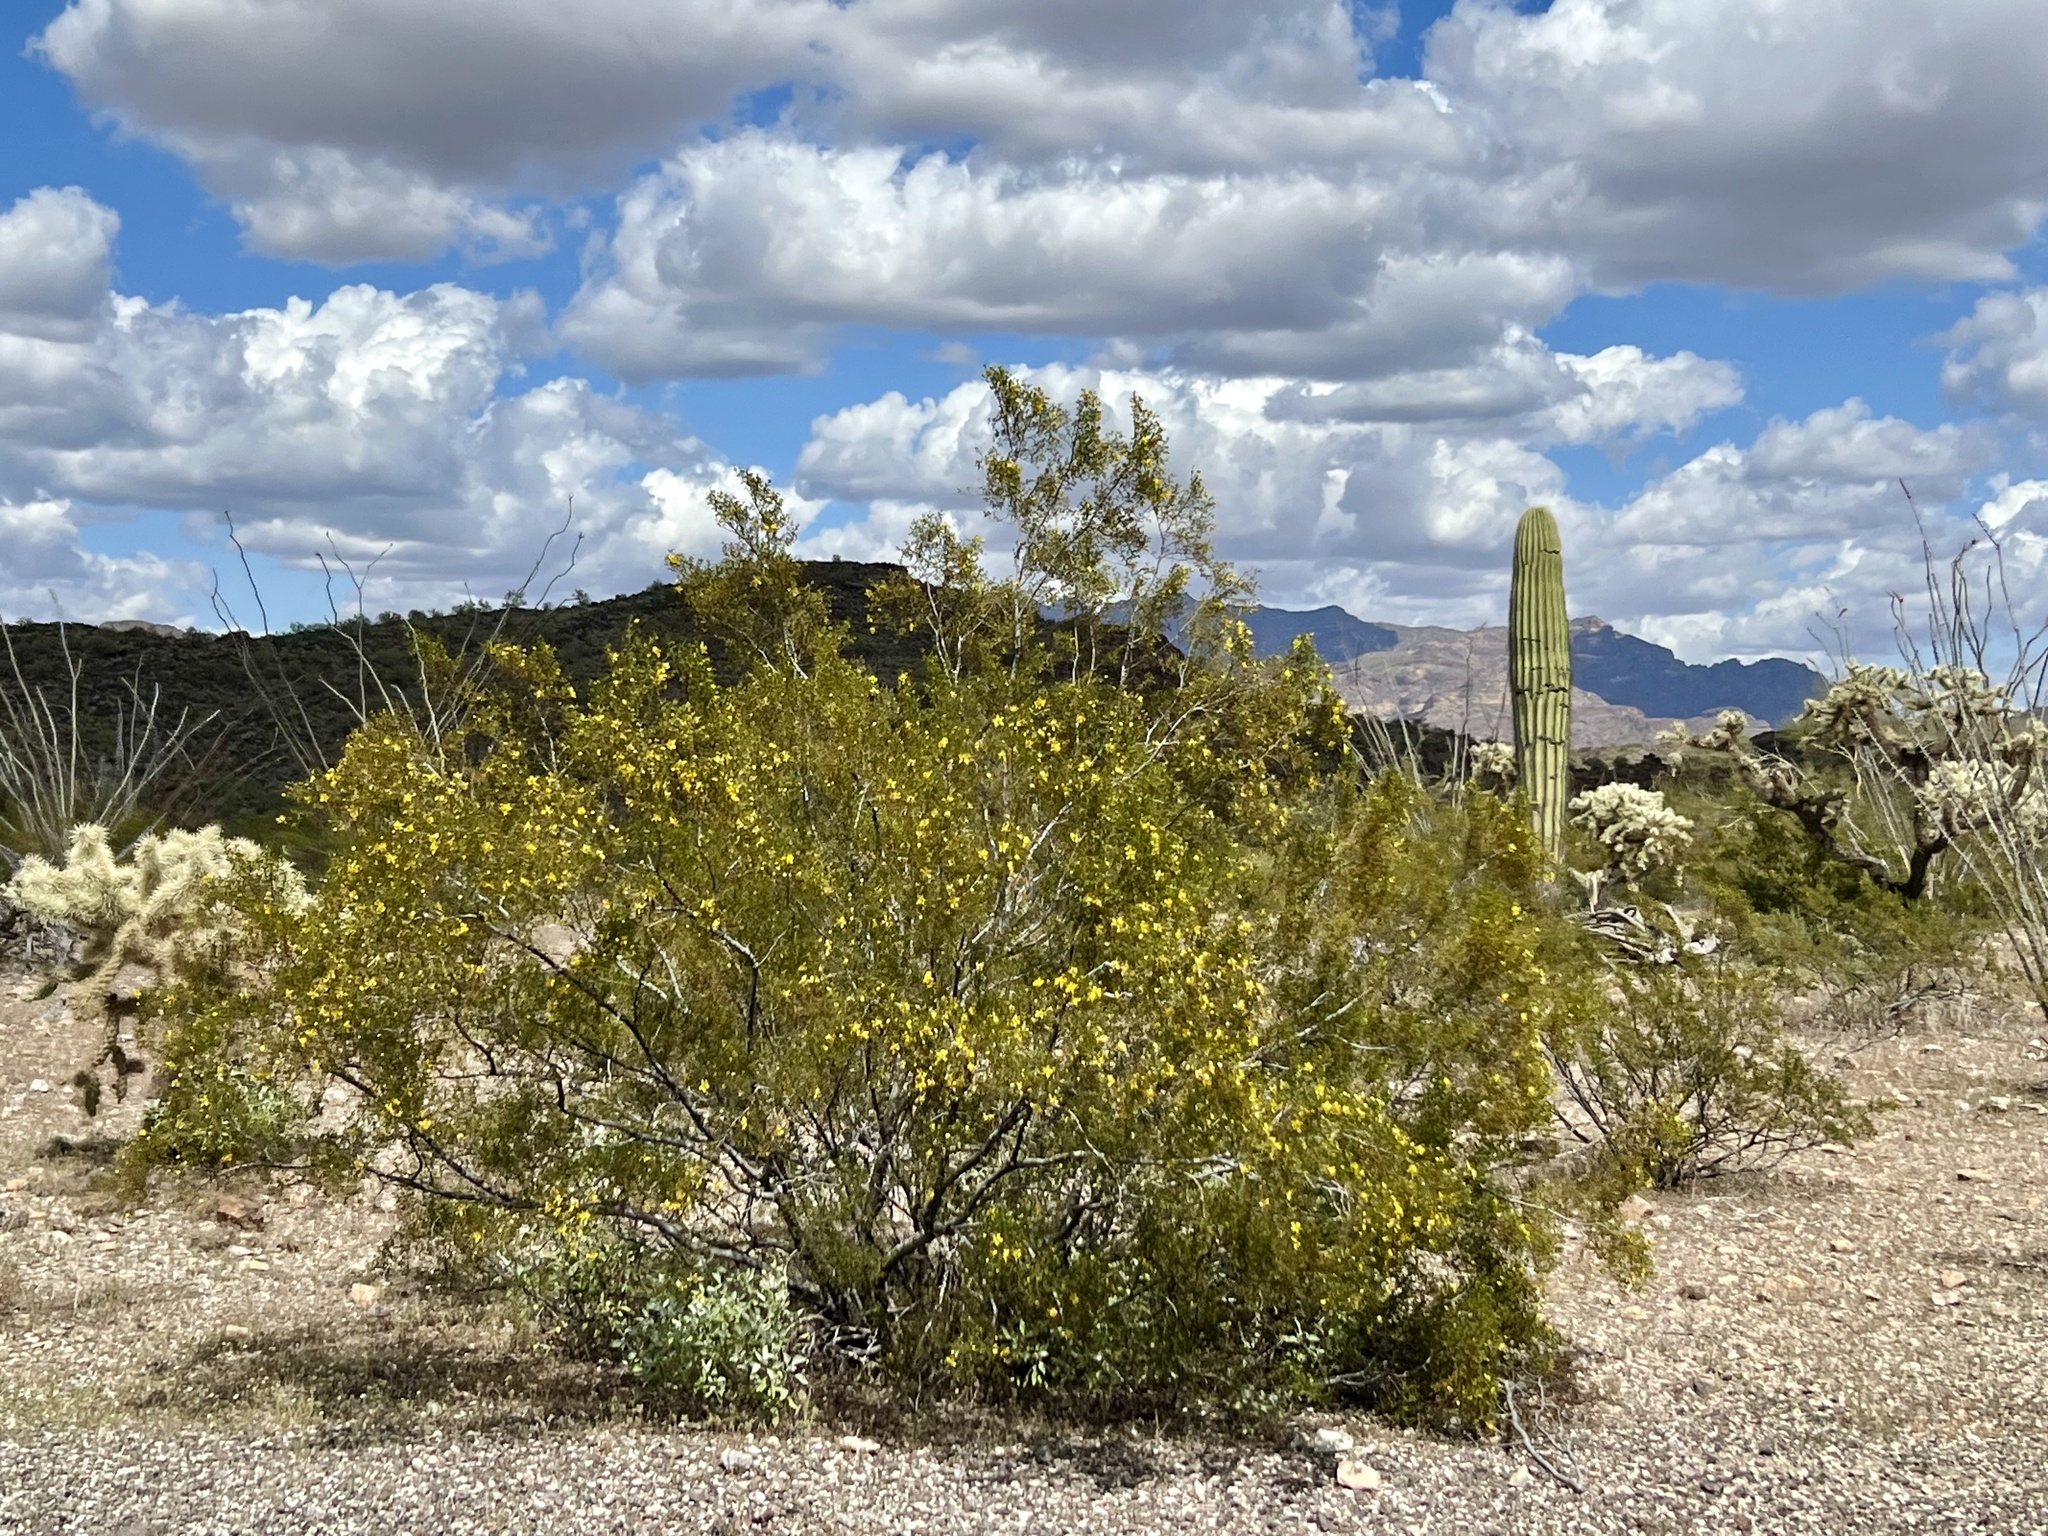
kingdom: Plantae
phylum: Tracheophyta
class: Magnoliopsida
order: Zygophyllales
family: Zygophyllaceae
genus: Larrea
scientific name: Larrea tridentata
